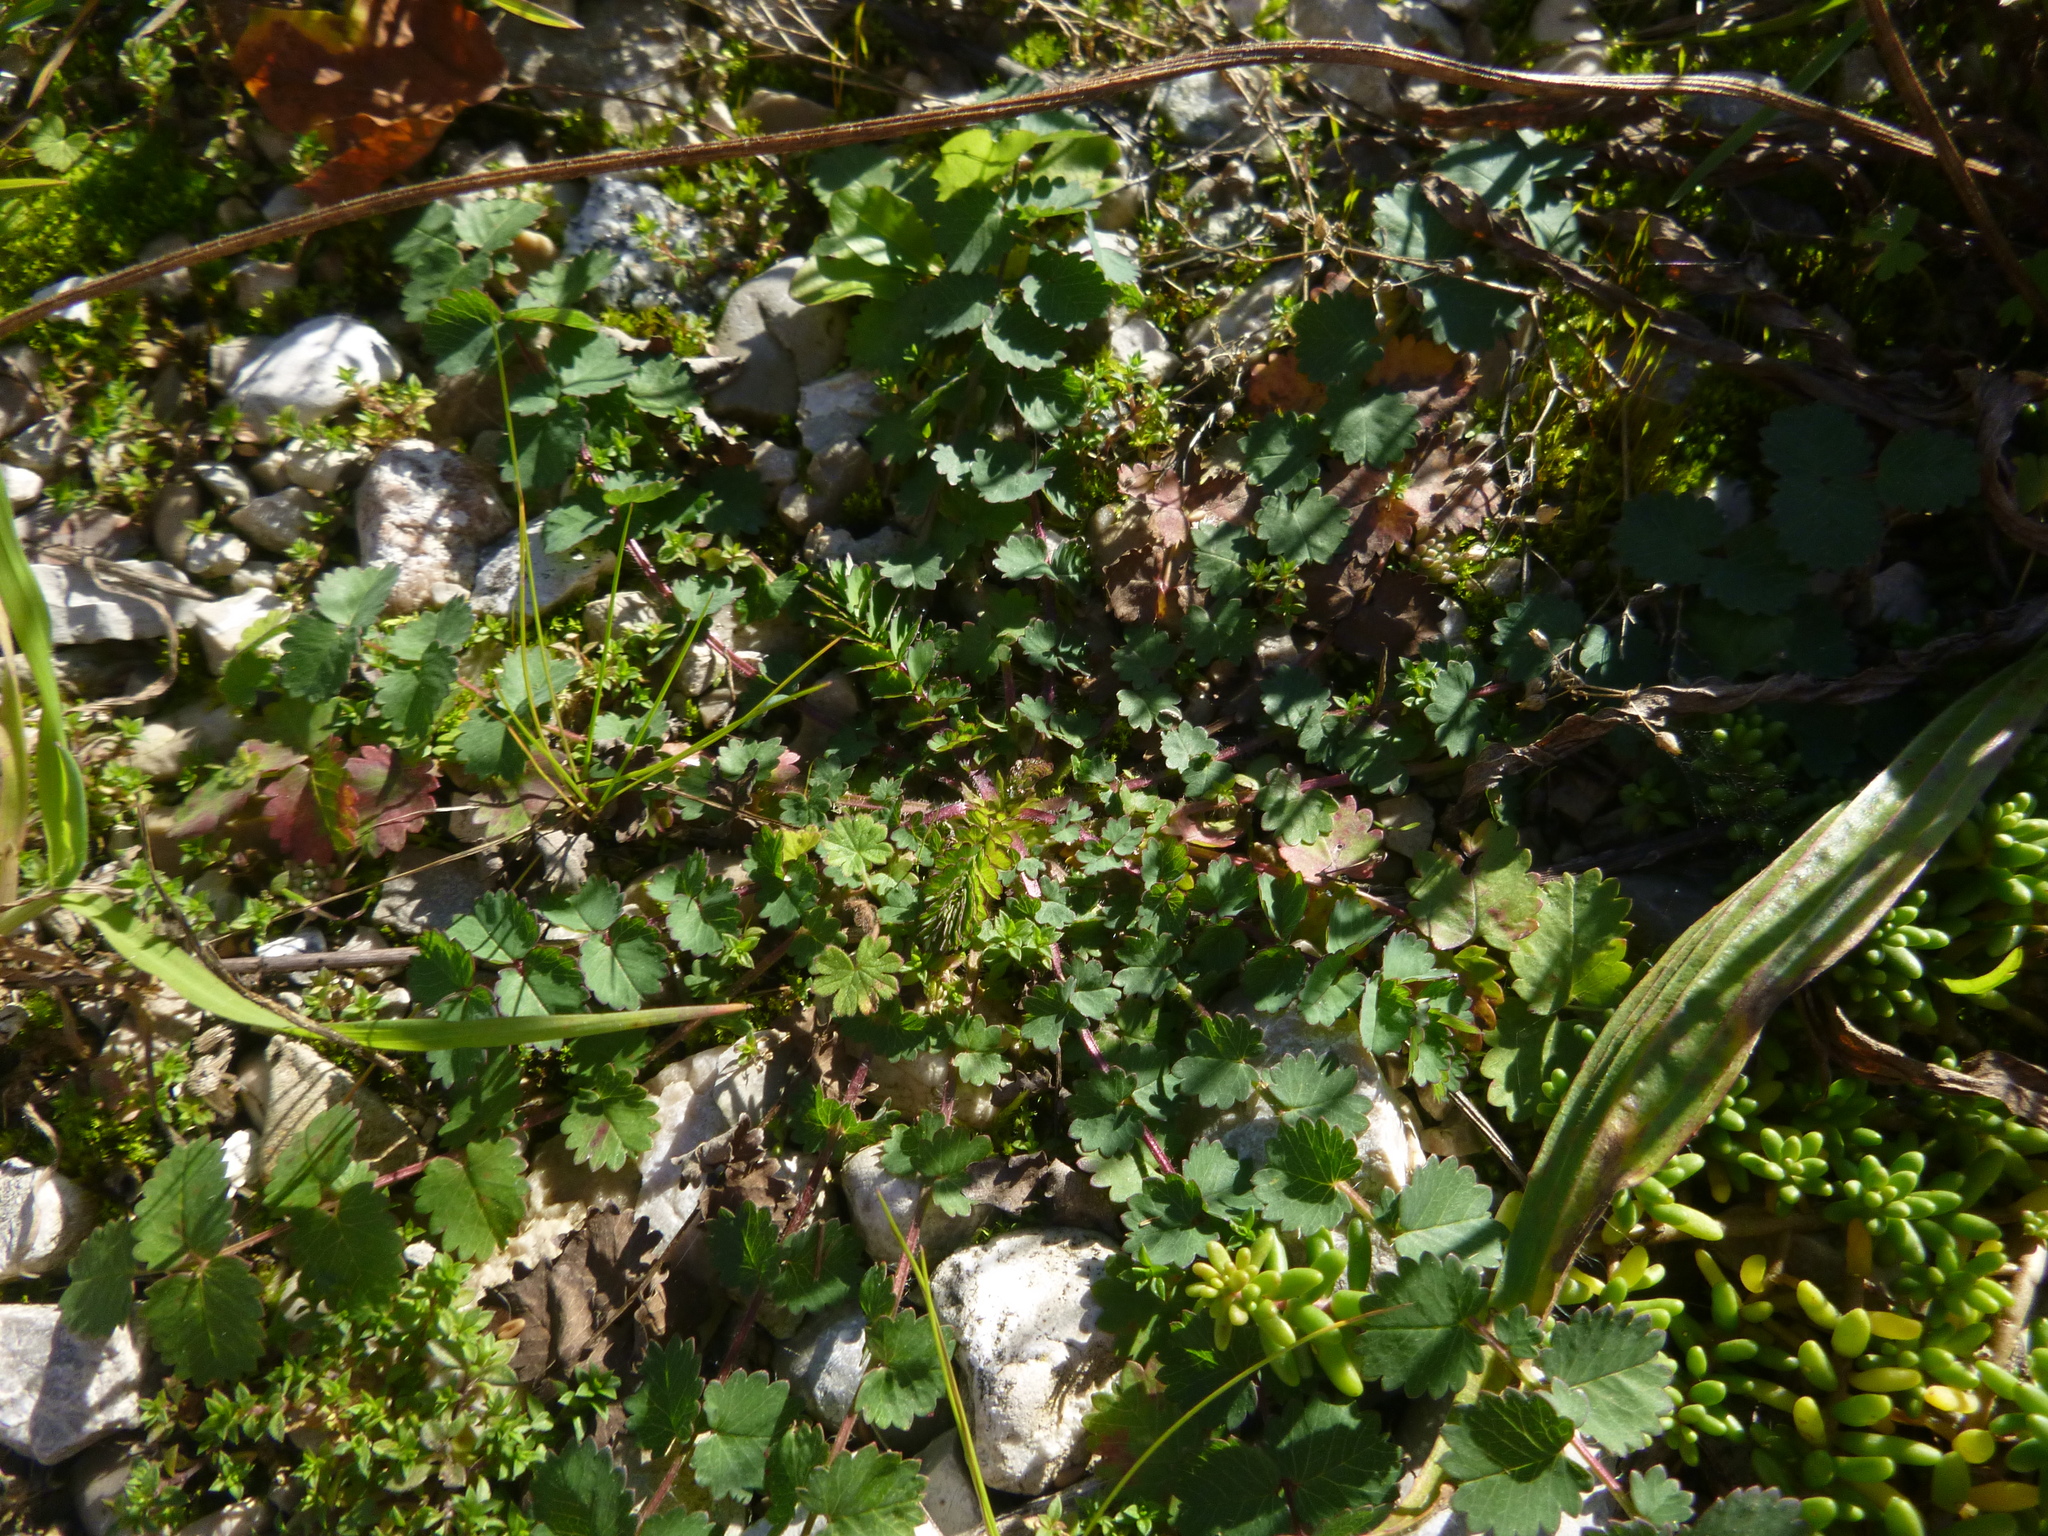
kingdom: Plantae
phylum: Tracheophyta
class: Magnoliopsida
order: Rosales
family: Rosaceae
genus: Poterium
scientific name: Poterium sanguisorba
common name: Salad burnet
